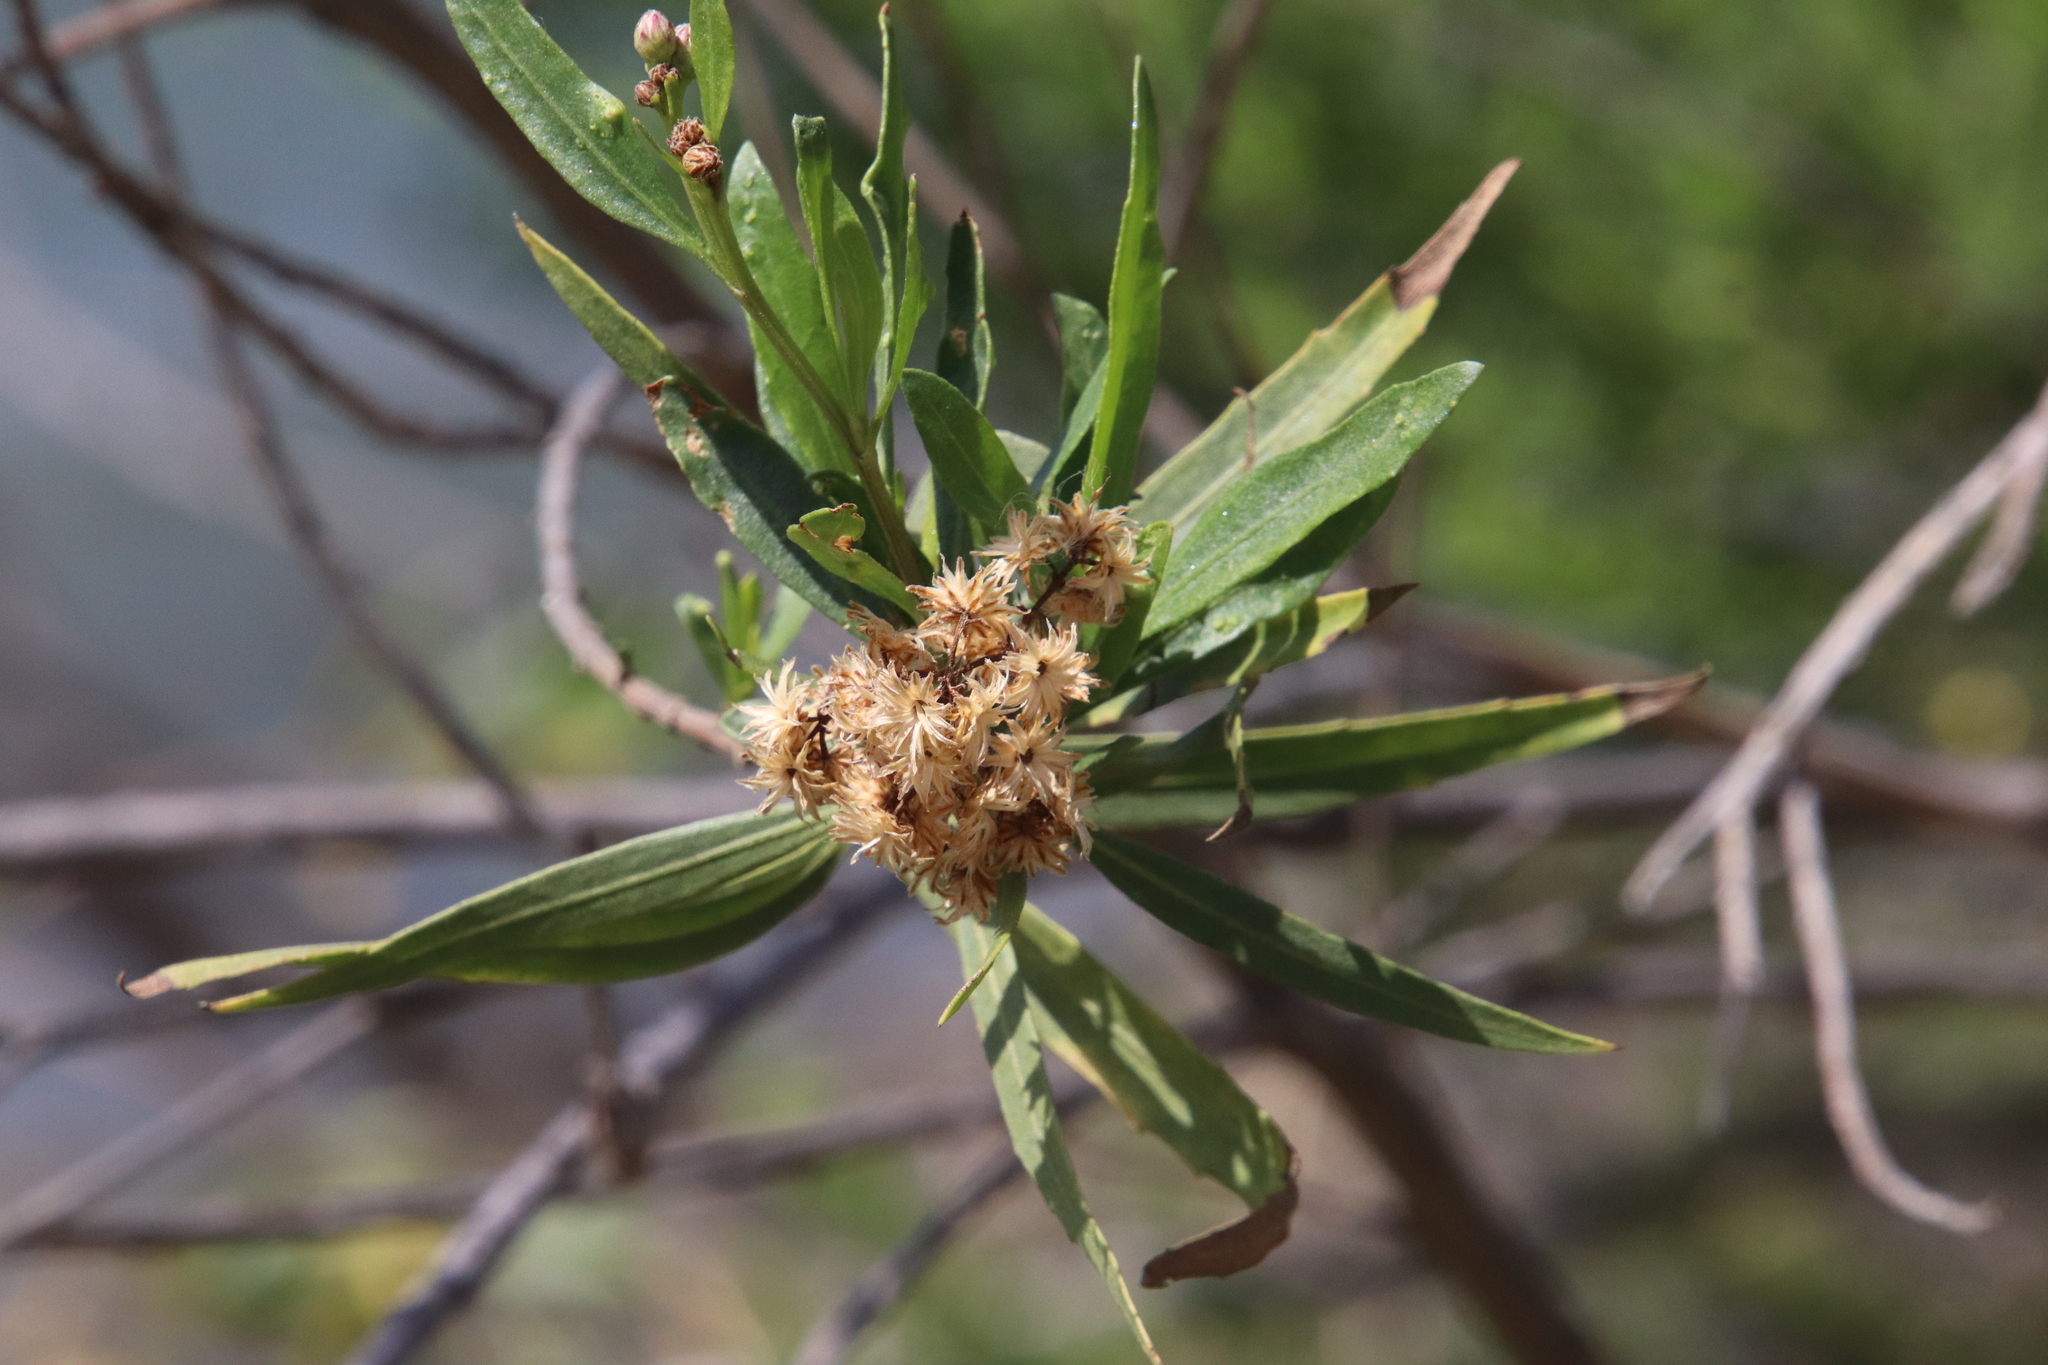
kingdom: Plantae
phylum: Tracheophyta
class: Magnoliopsida
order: Asterales
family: Asteraceae
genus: Baccharis
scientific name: Baccharis salicifolia
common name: Sticky baccharis
